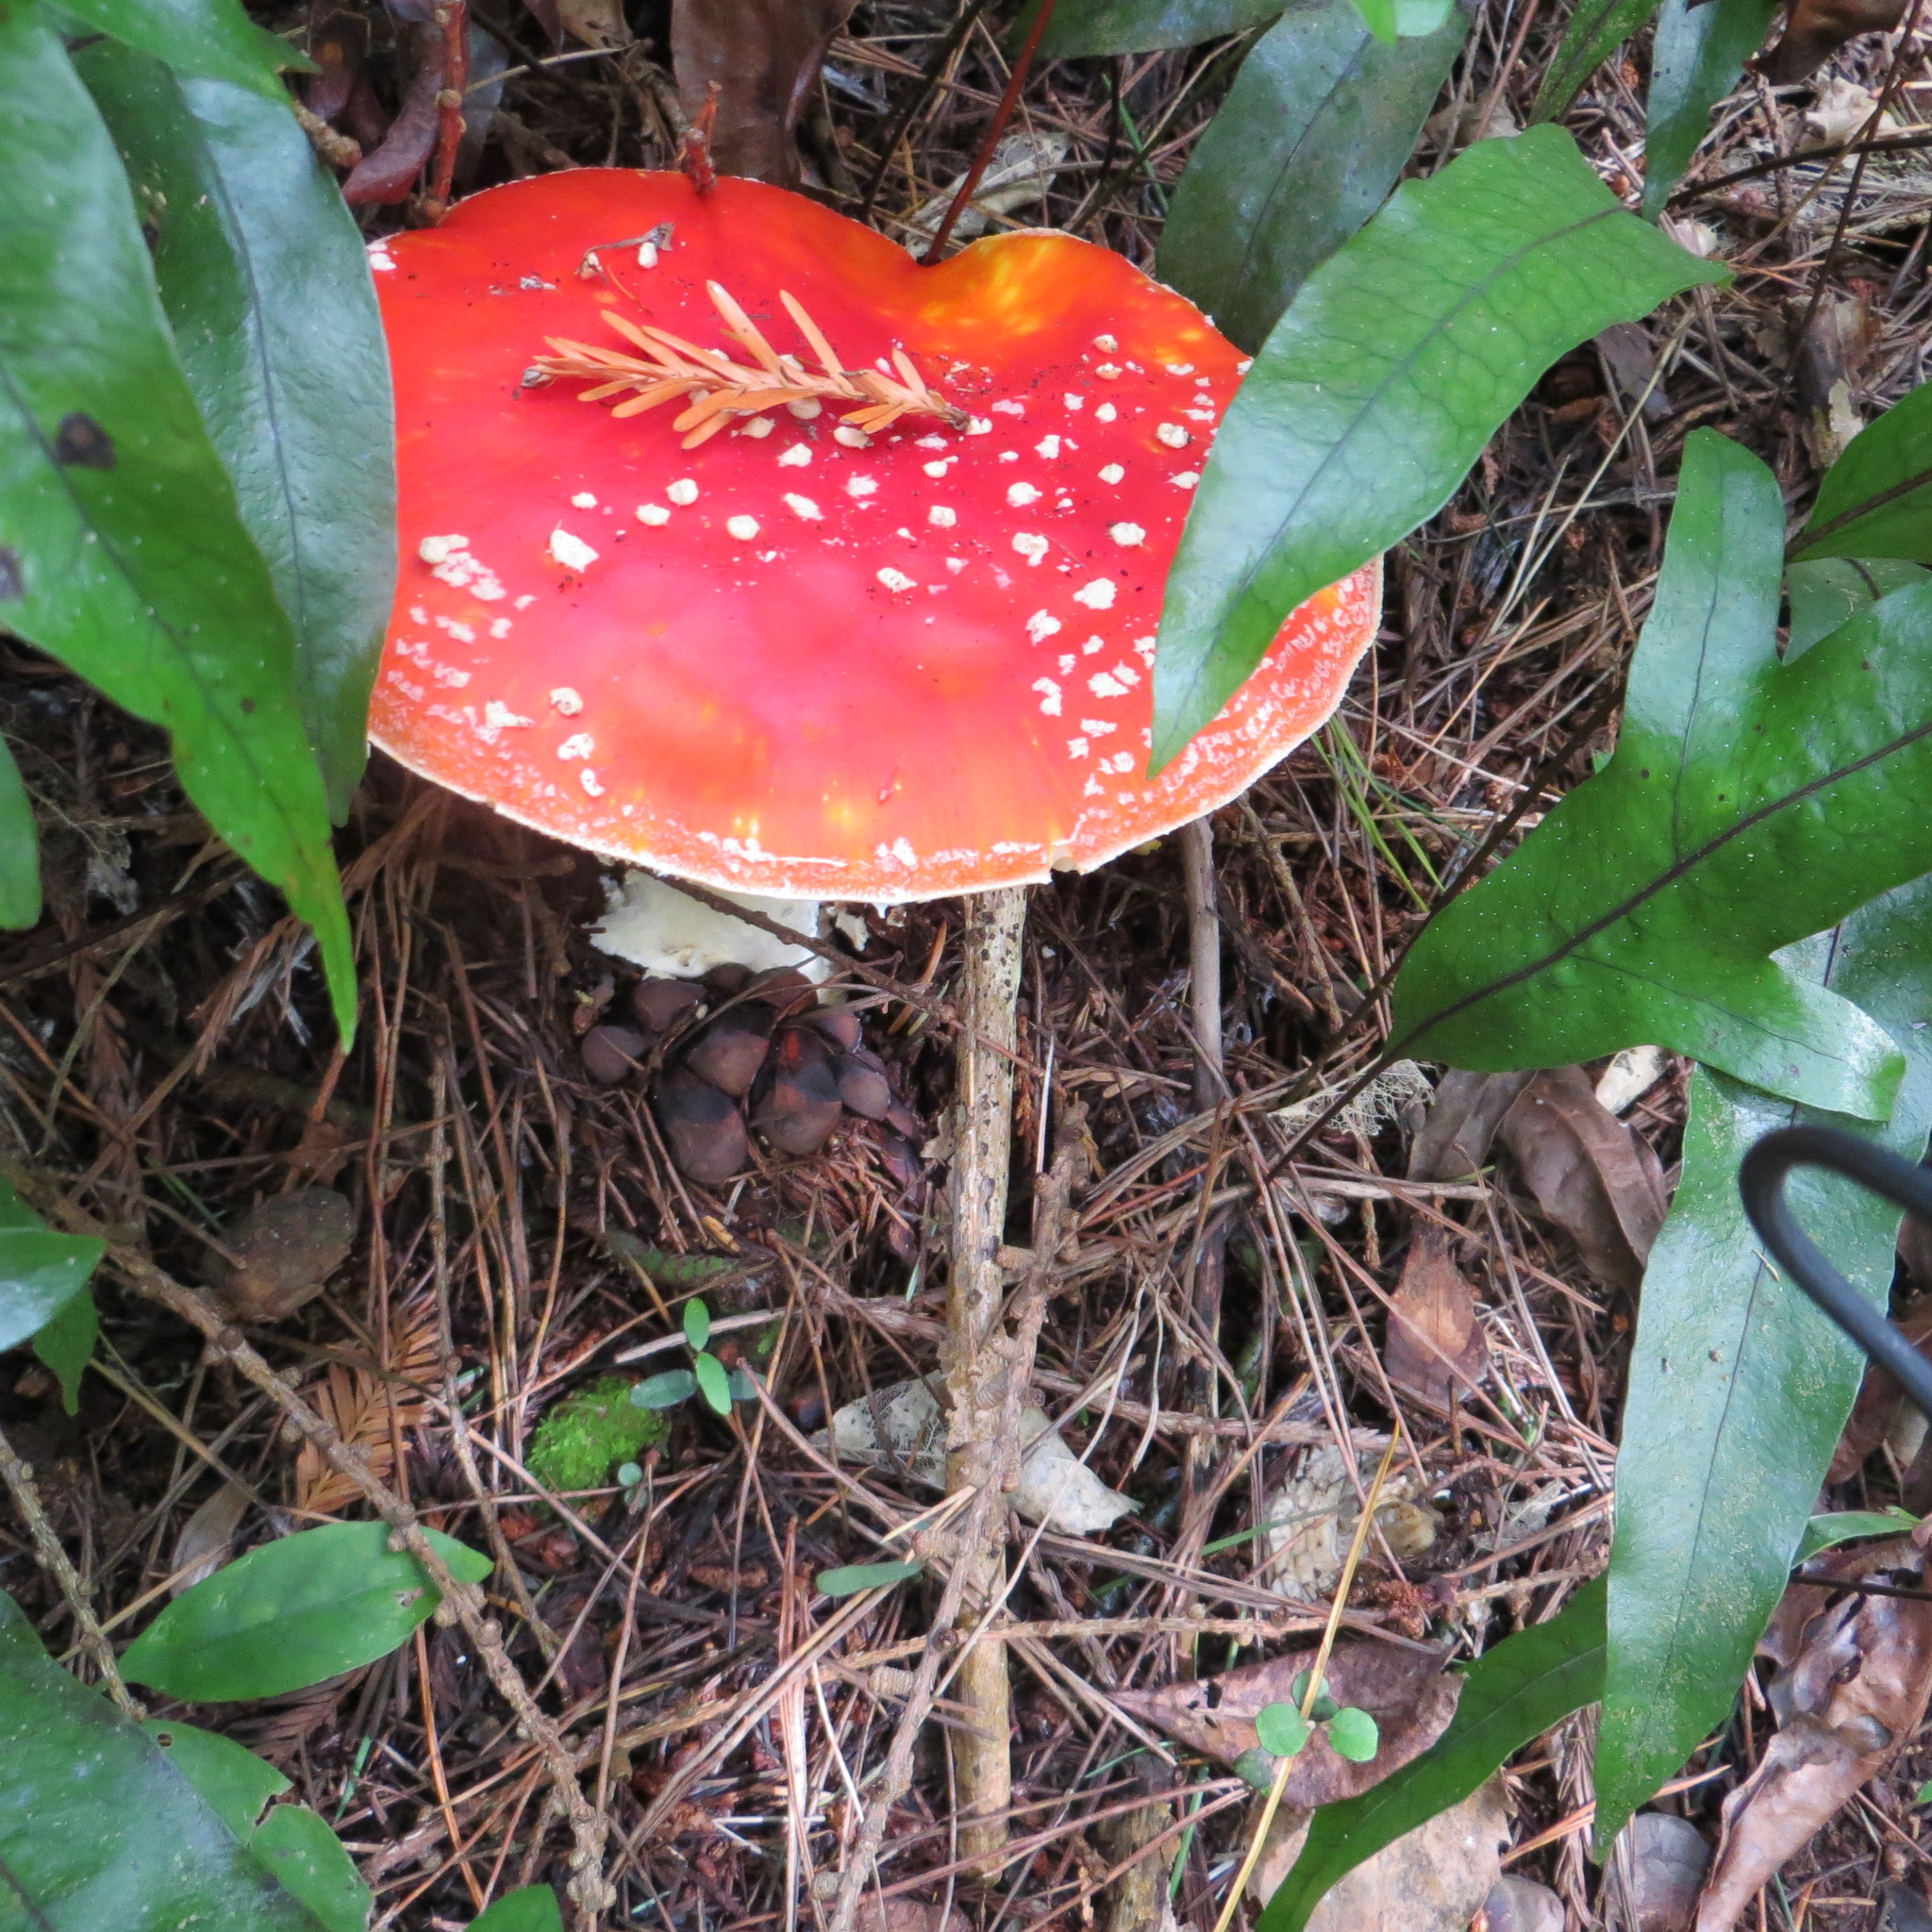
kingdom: Fungi
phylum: Basidiomycota
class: Agaricomycetes
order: Agaricales
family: Amanitaceae
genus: Amanita
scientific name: Amanita muscaria
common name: Fly agaric
